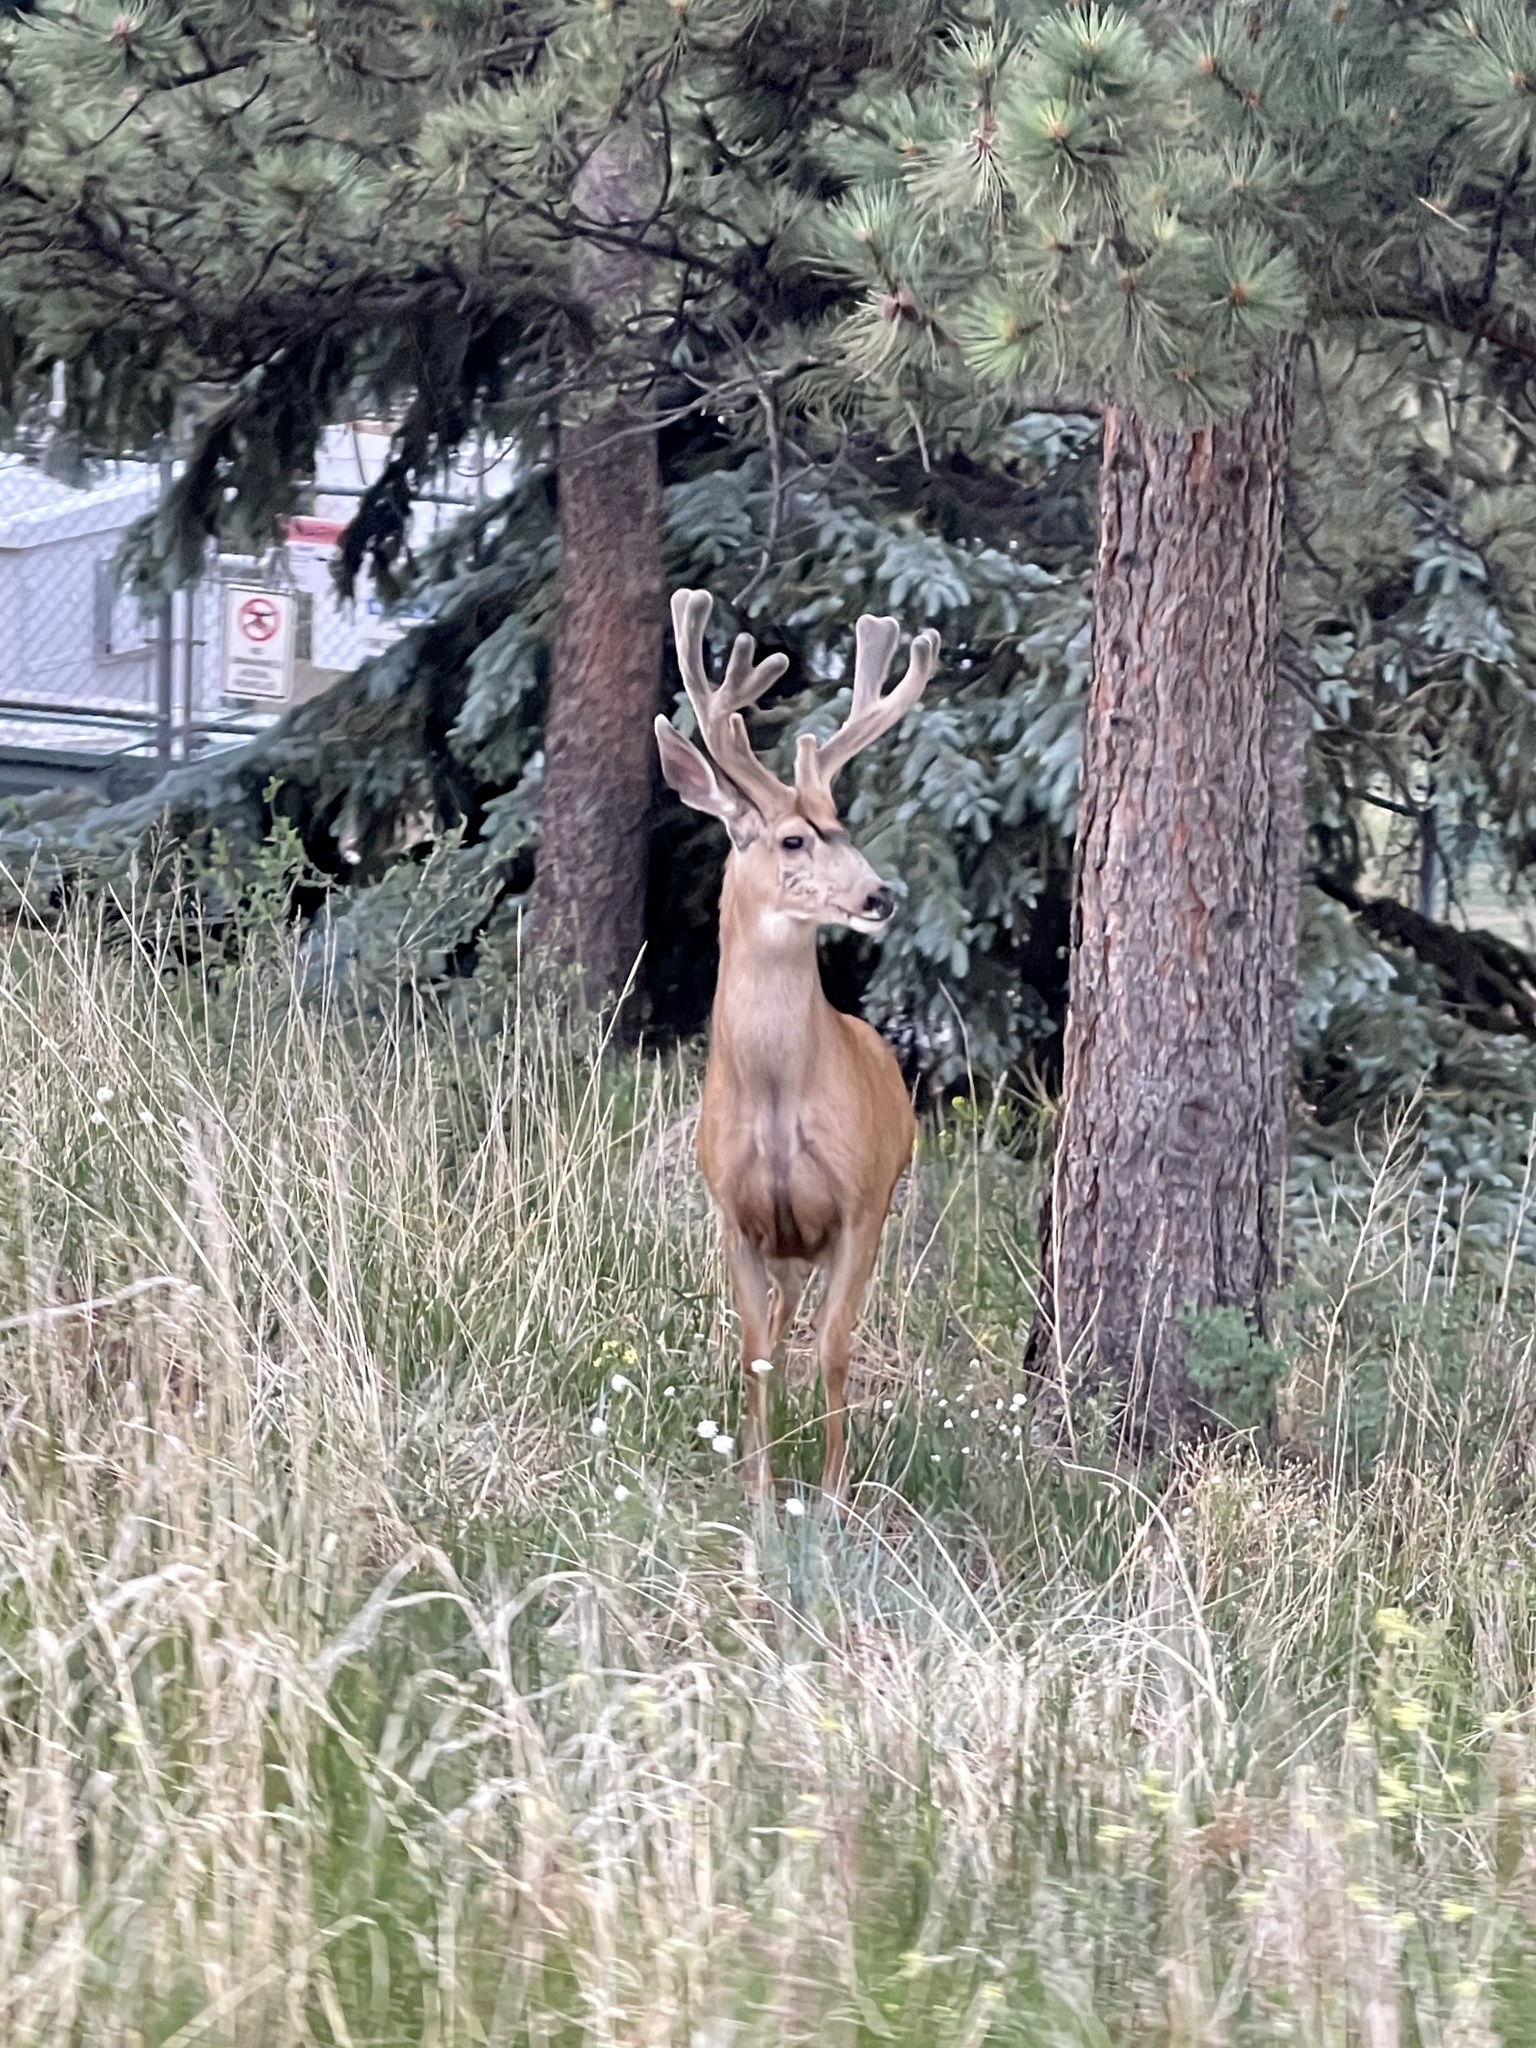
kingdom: Animalia
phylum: Chordata
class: Mammalia
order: Artiodactyla
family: Cervidae
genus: Odocoileus
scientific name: Odocoileus hemionus
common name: Mule deer
